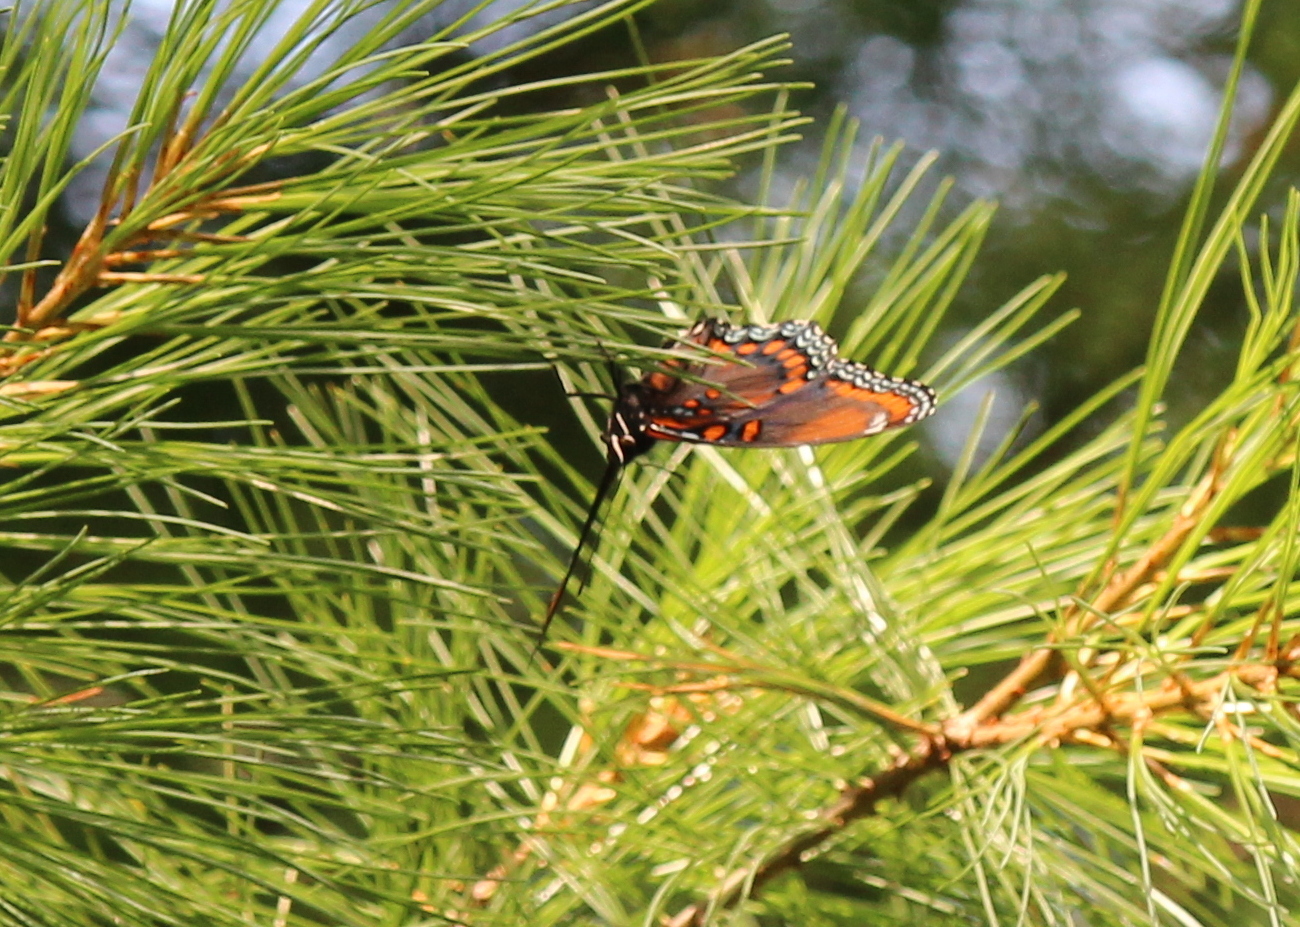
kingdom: Animalia
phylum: Arthropoda
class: Insecta
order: Lepidoptera
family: Nymphalidae
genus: Limenitis
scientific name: Limenitis arthemis
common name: Red-spotted admiral
